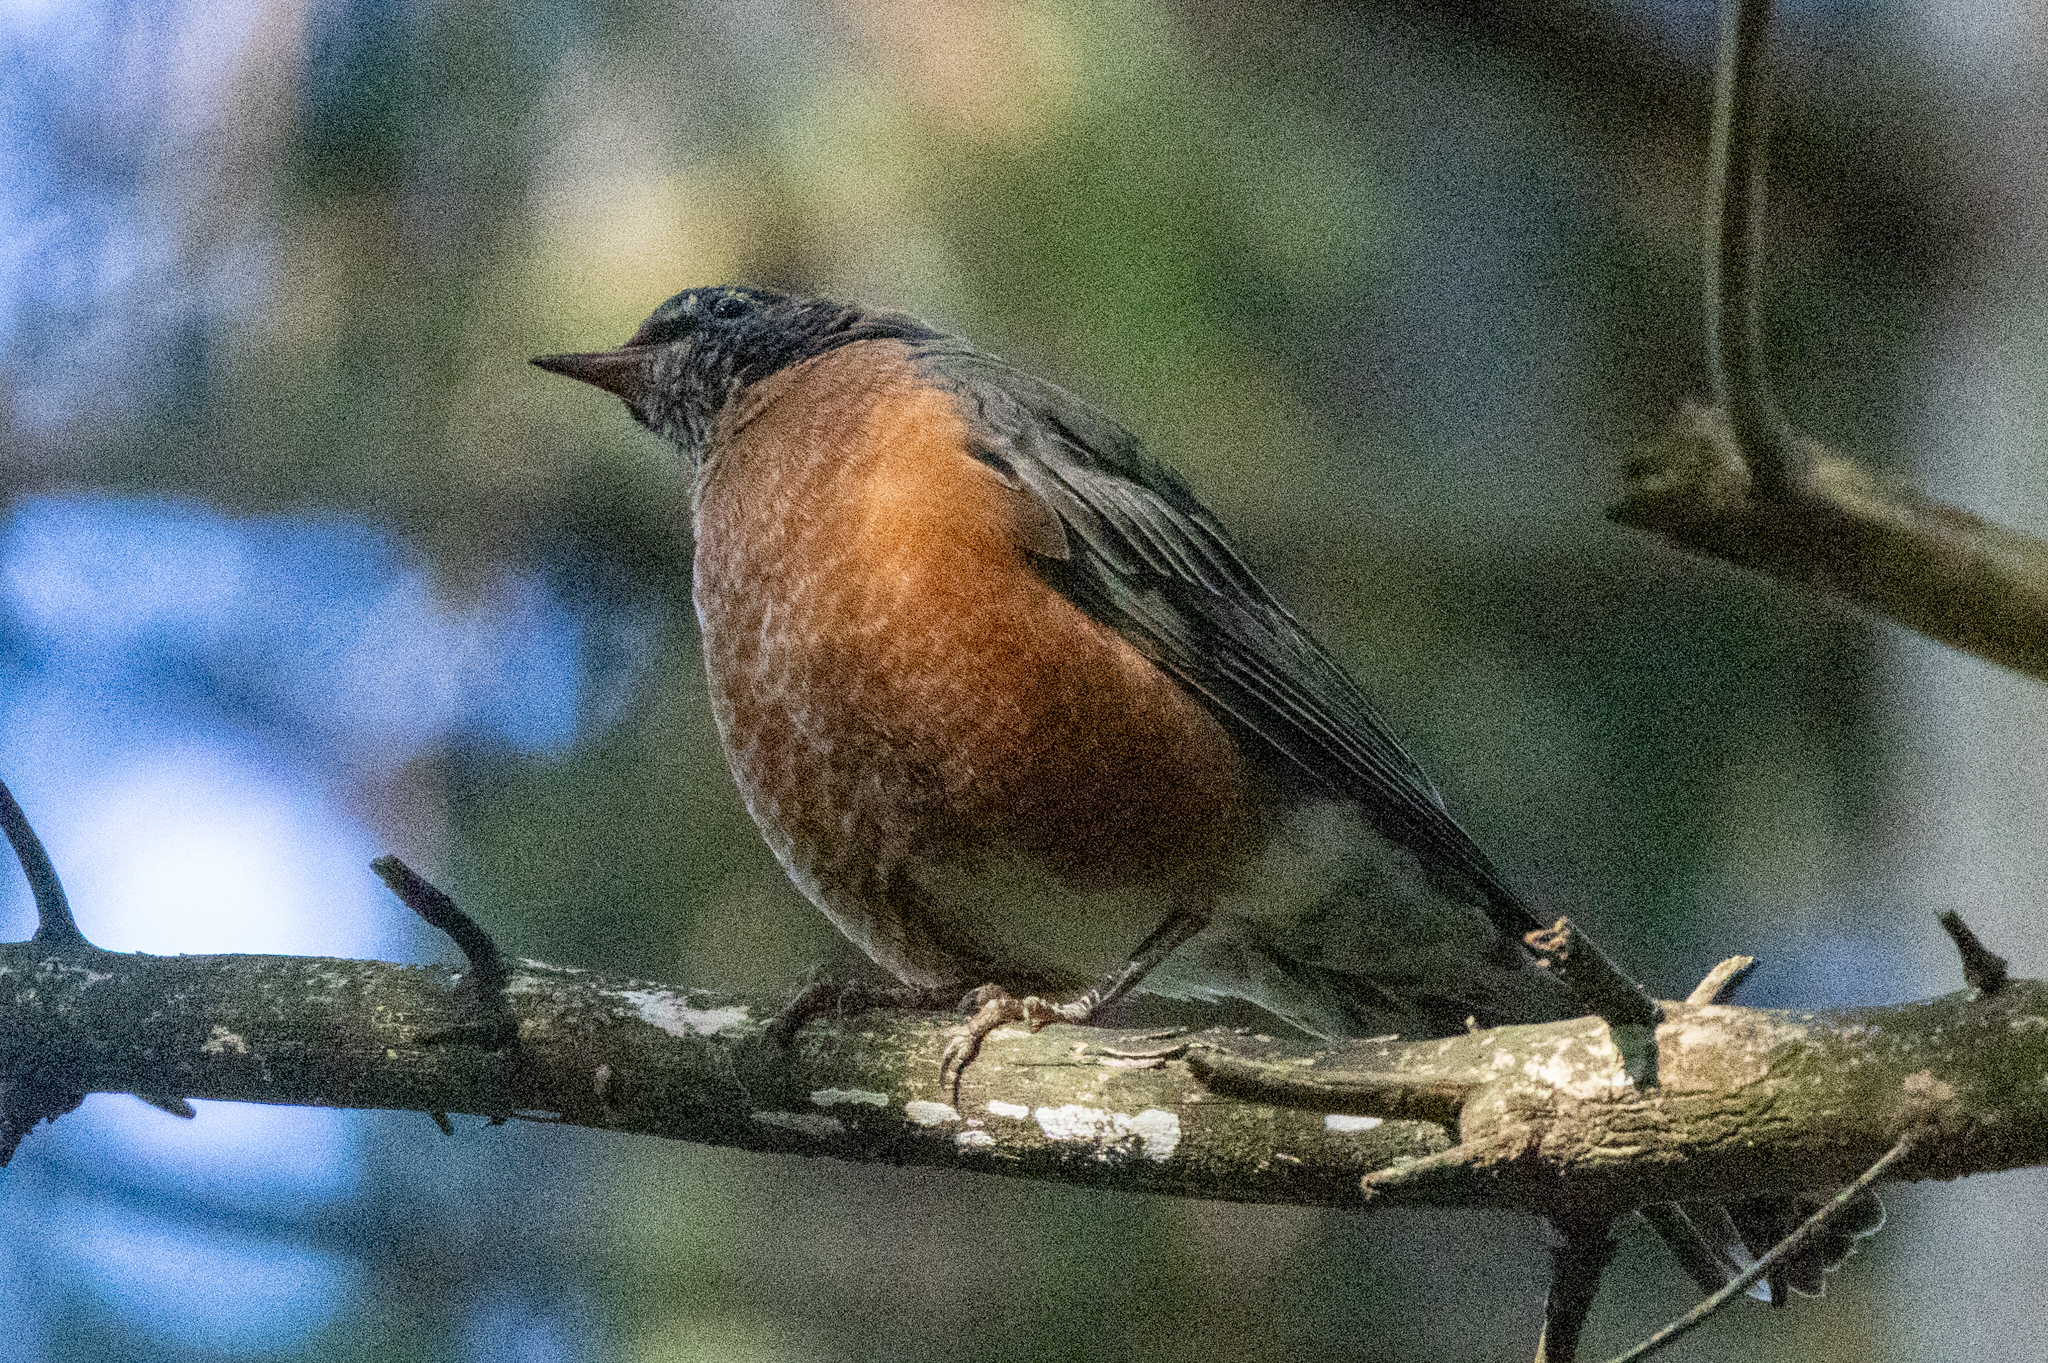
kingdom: Animalia
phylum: Chordata
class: Aves
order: Passeriformes
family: Turdidae
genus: Turdus
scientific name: Turdus migratorius
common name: American robin
